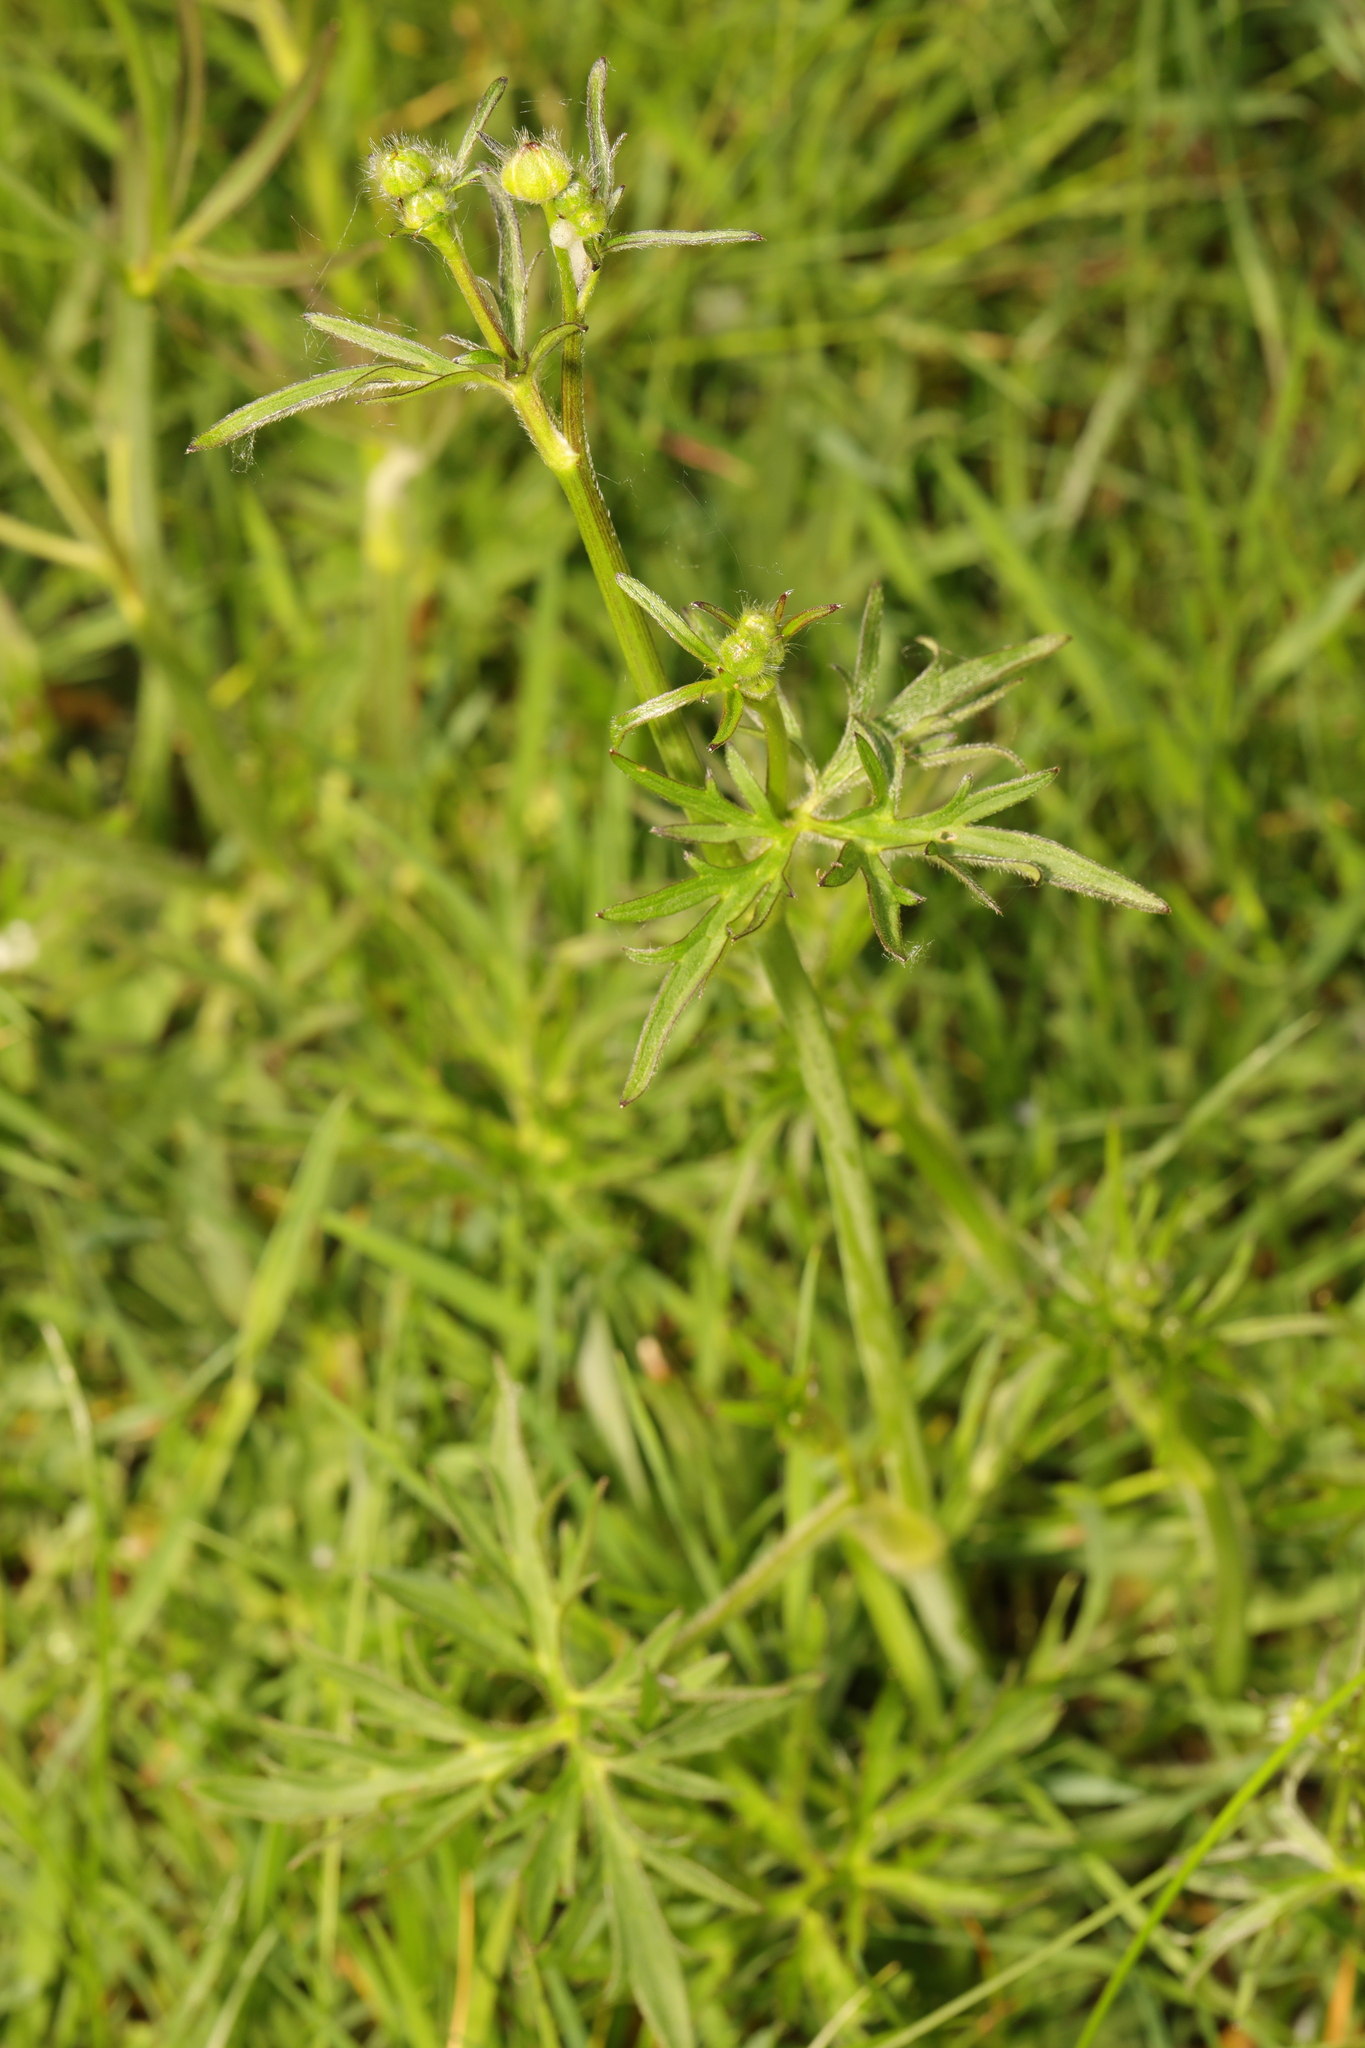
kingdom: Plantae
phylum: Tracheophyta
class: Magnoliopsida
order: Ranunculales
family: Ranunculaceae
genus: Ranunculus
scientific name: Ranunculus acris
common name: Meadow buttercup
